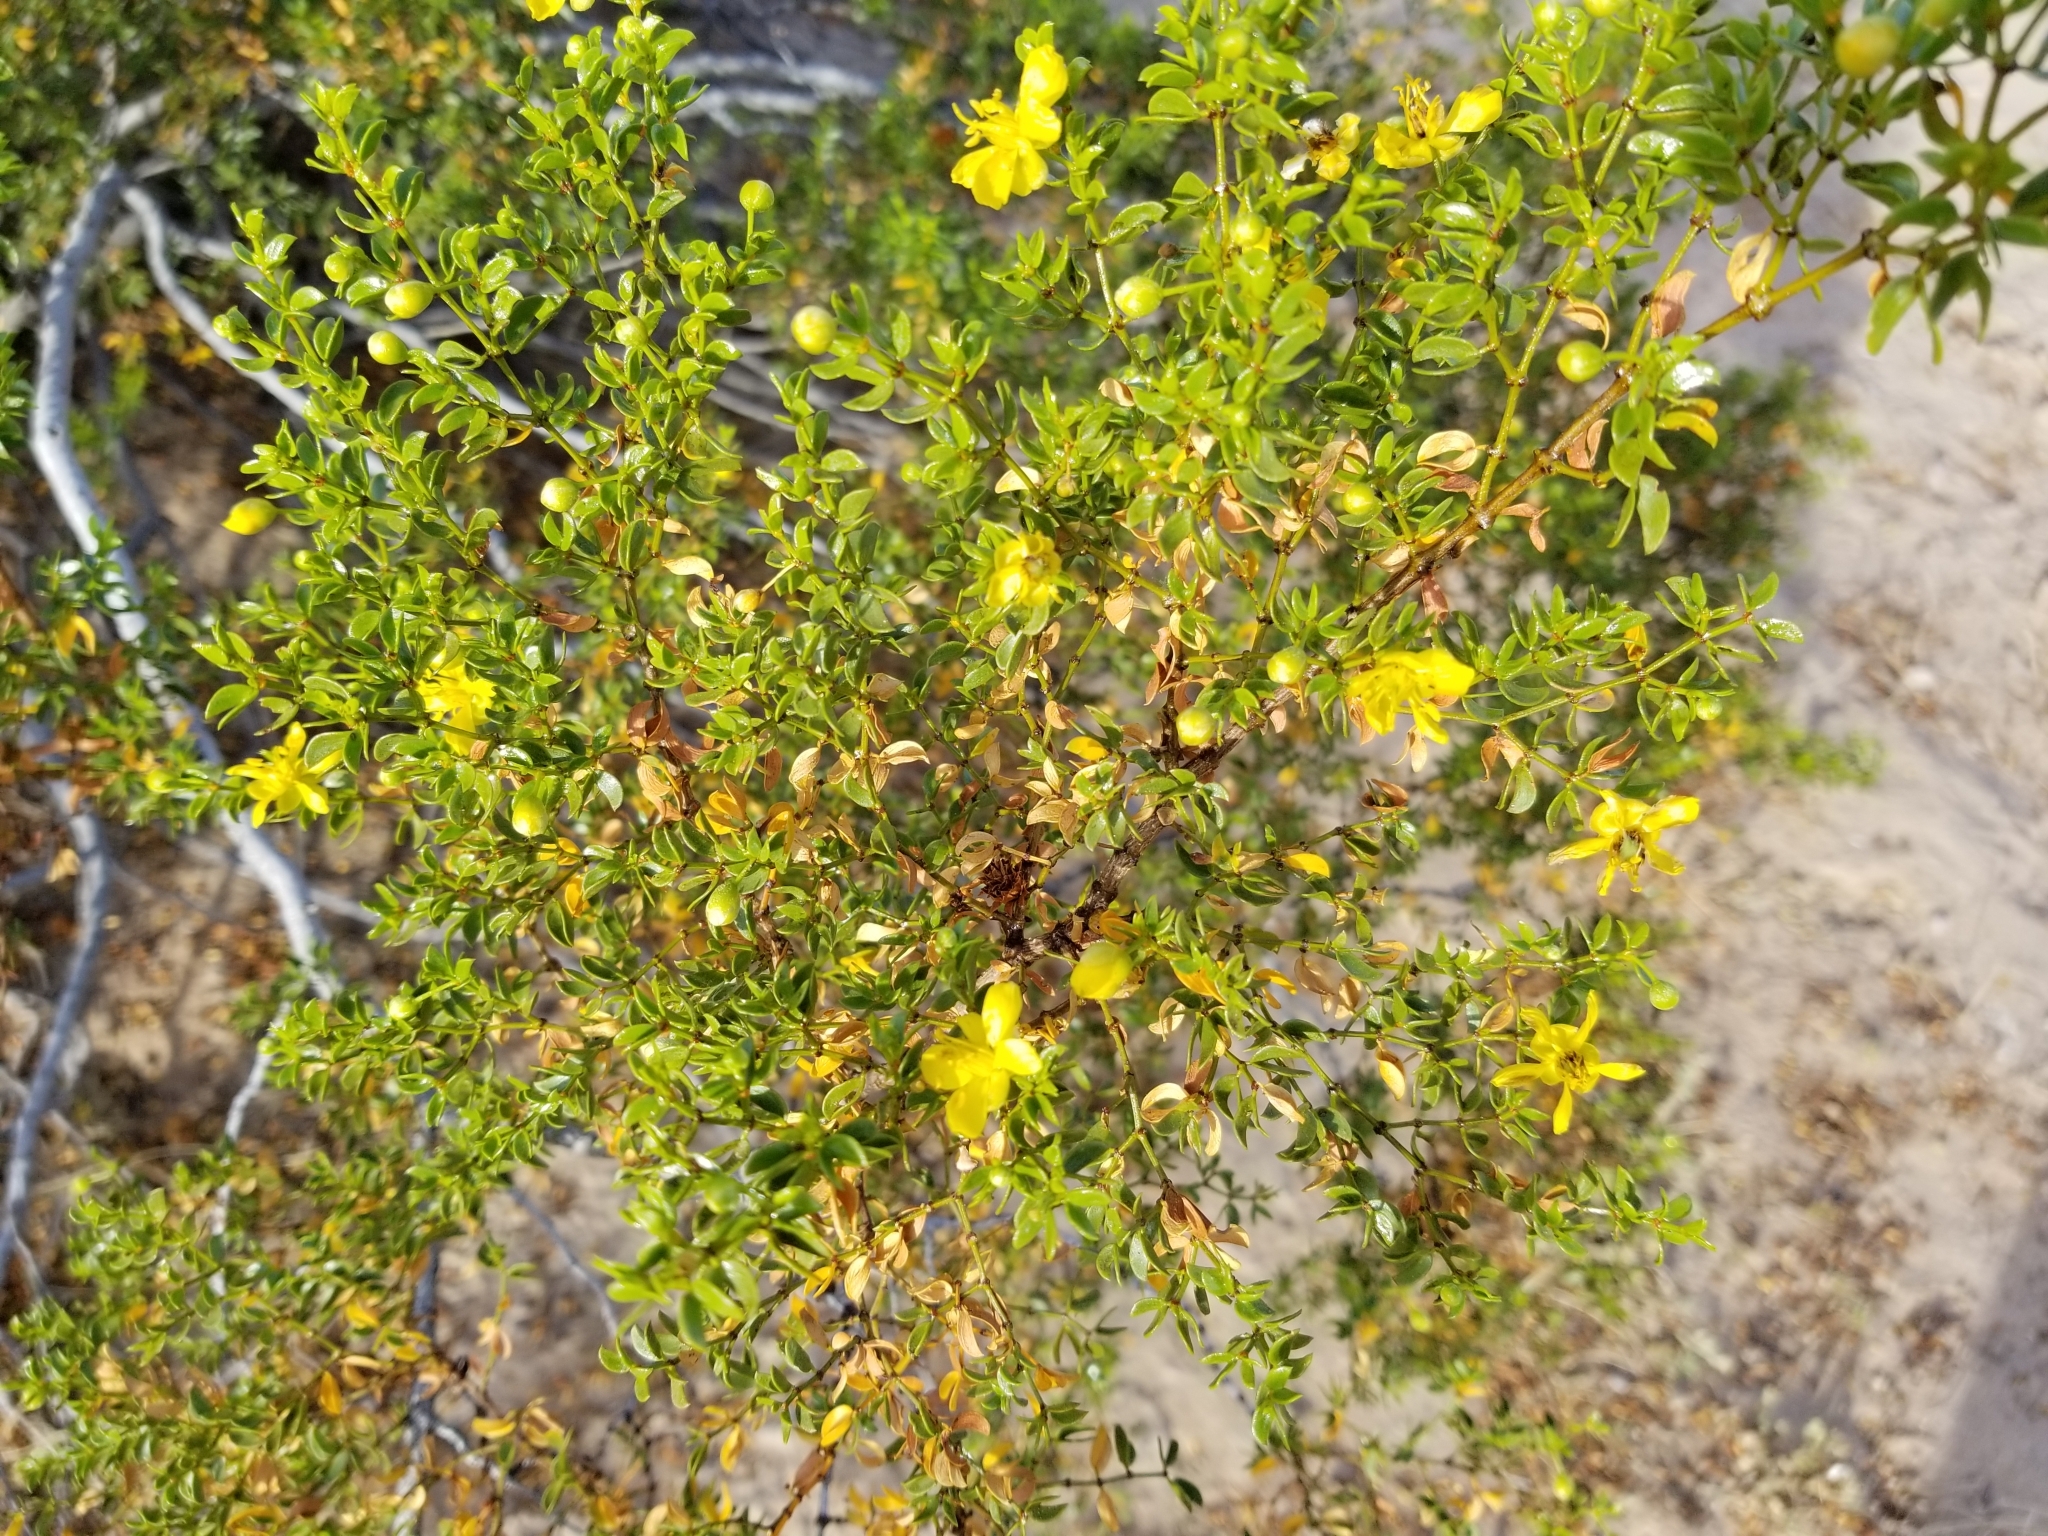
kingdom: Plantae
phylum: Tracheophyta
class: Magnoliopsida
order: Zygophyllales
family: Zygophyllaceae
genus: Larrea
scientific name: Larrea tridentata
